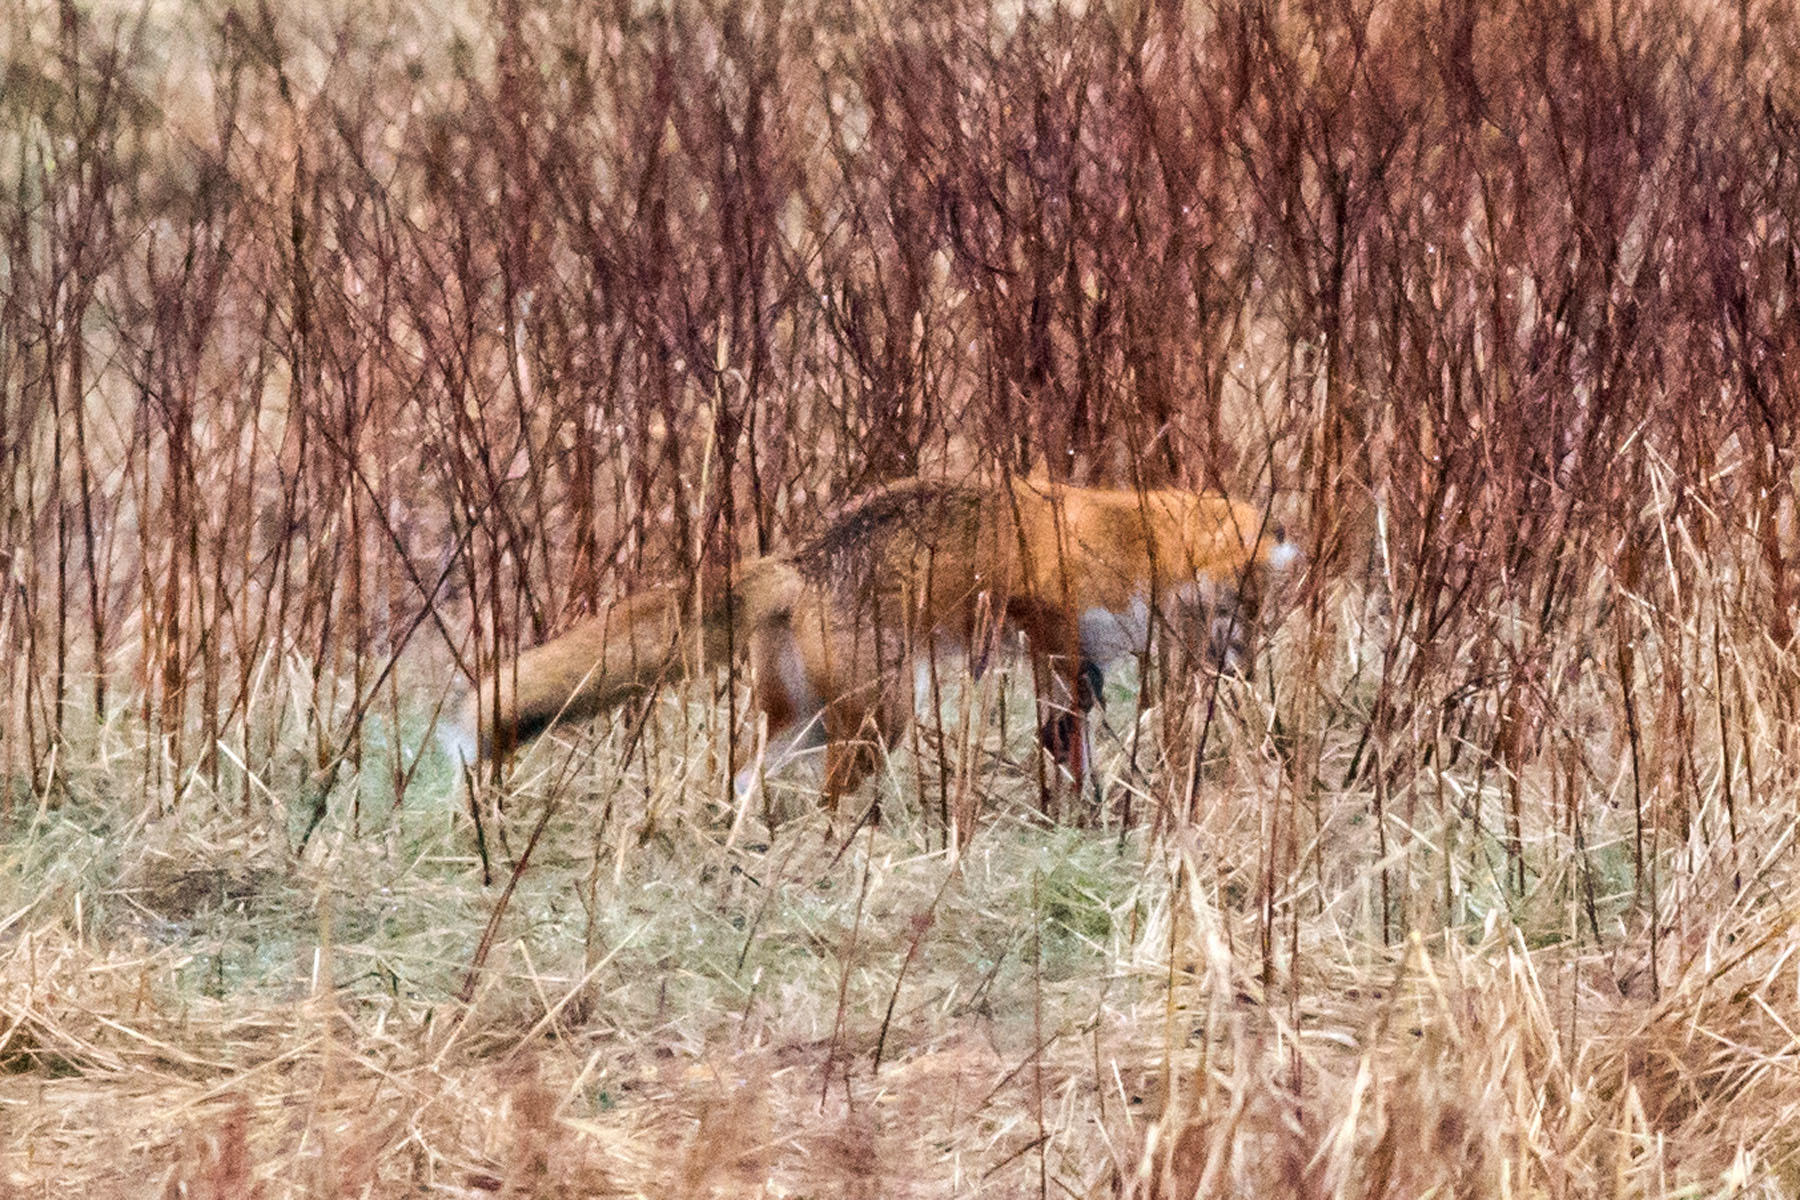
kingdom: Animalia
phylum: Chordata
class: Mammalia
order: Carnivora
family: Canidae
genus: Vulpes
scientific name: Vulpes vulpes
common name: Red fox
